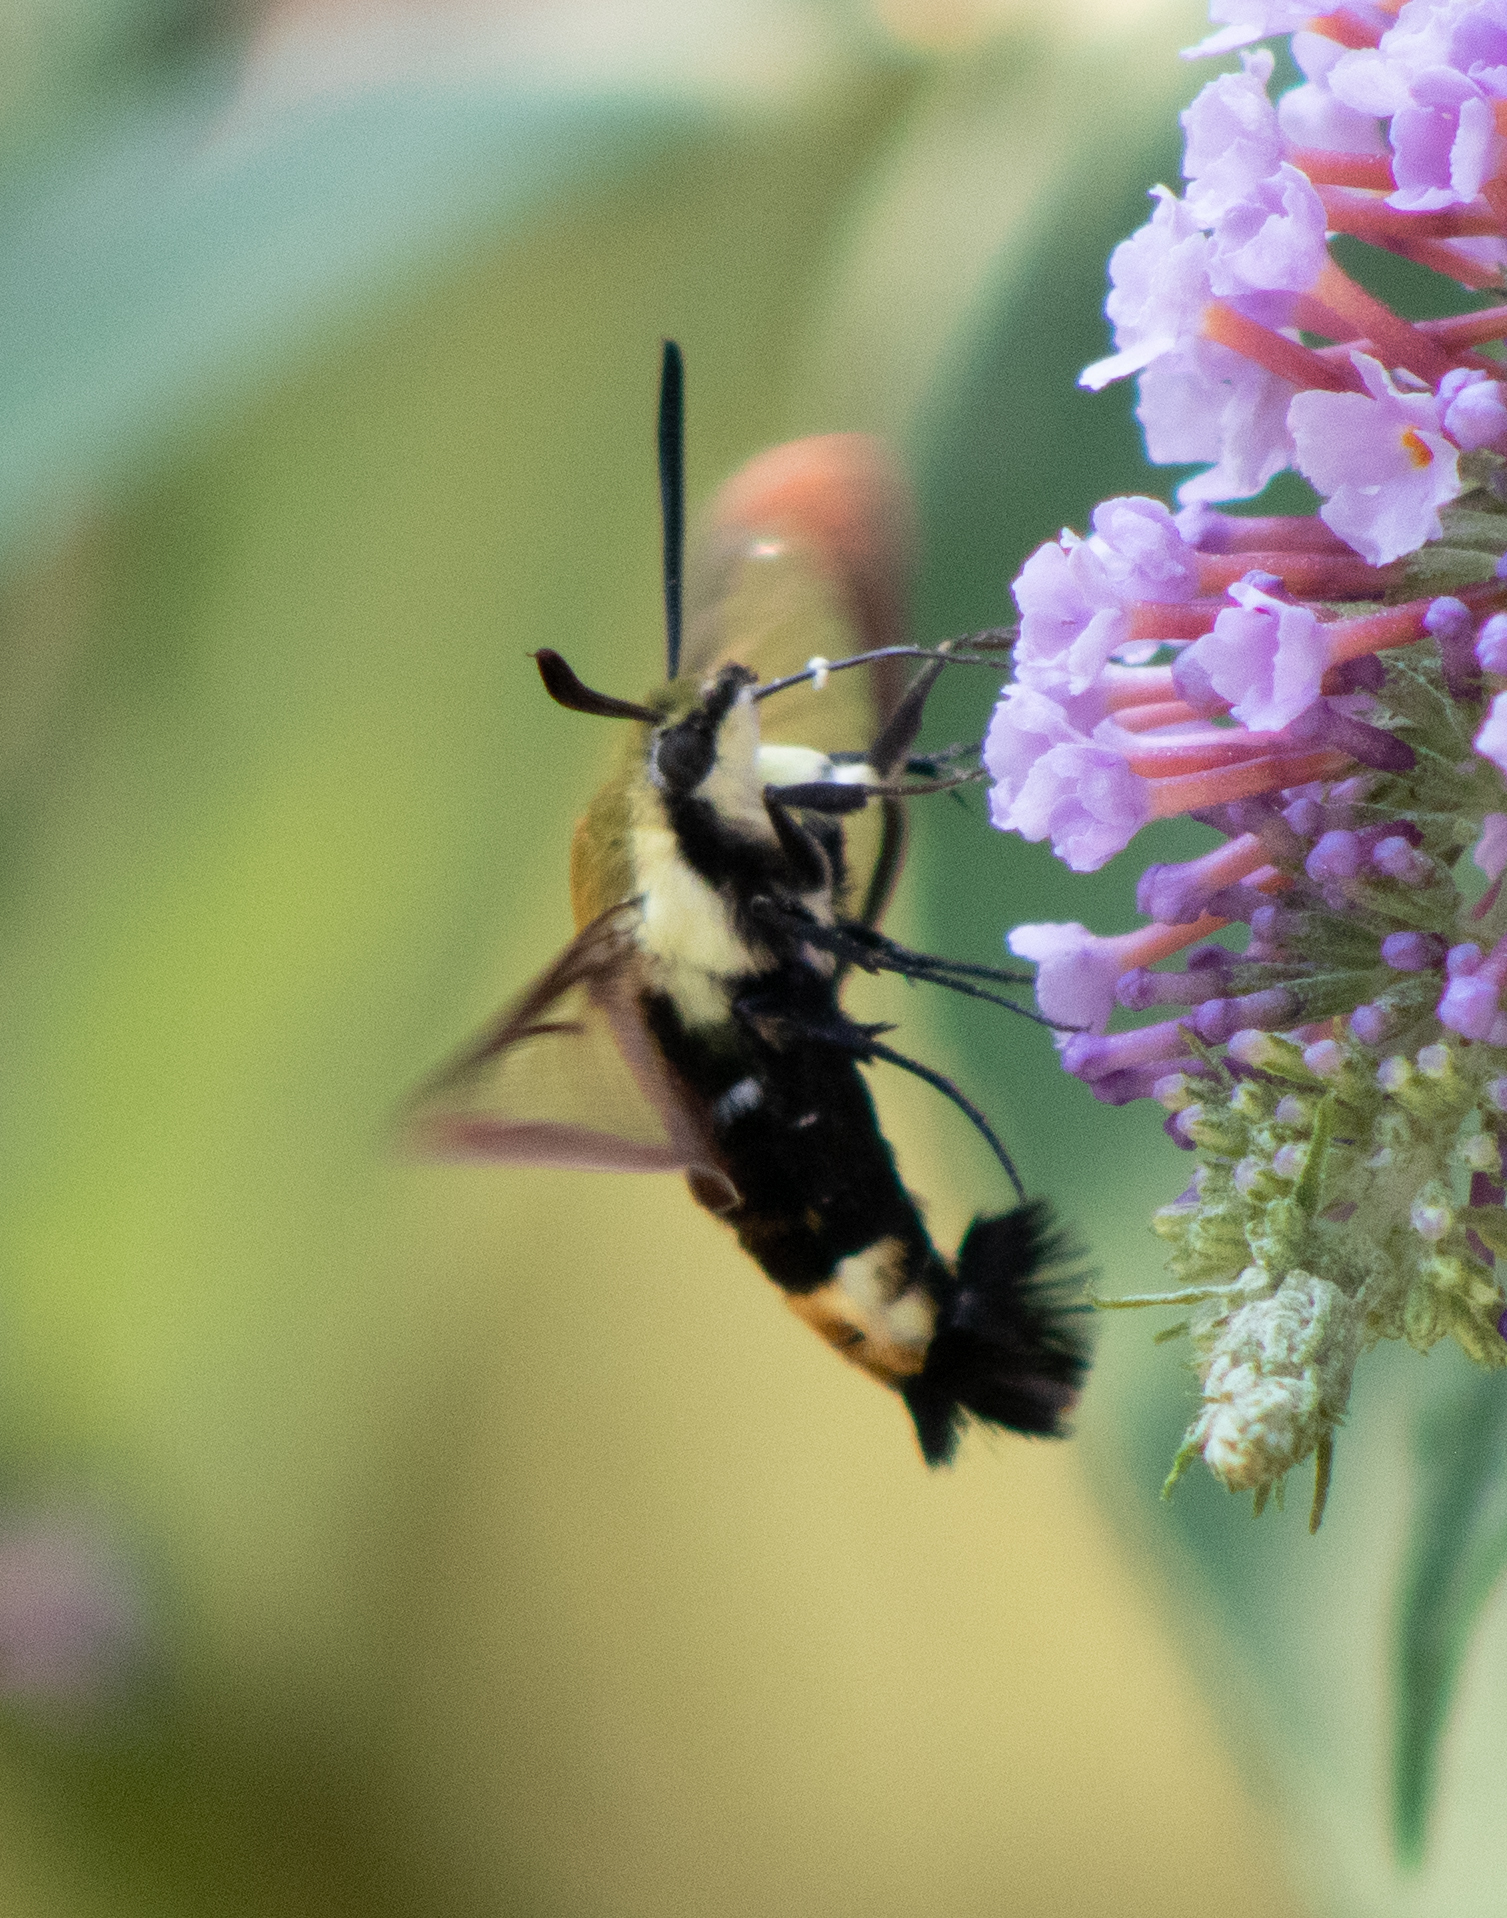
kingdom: Animalia
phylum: Arthropoda
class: Insecta
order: Lepidoptera
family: Sphingidae
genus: Hemaris
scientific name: Hemaris diffinis
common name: Bumblebee moth
